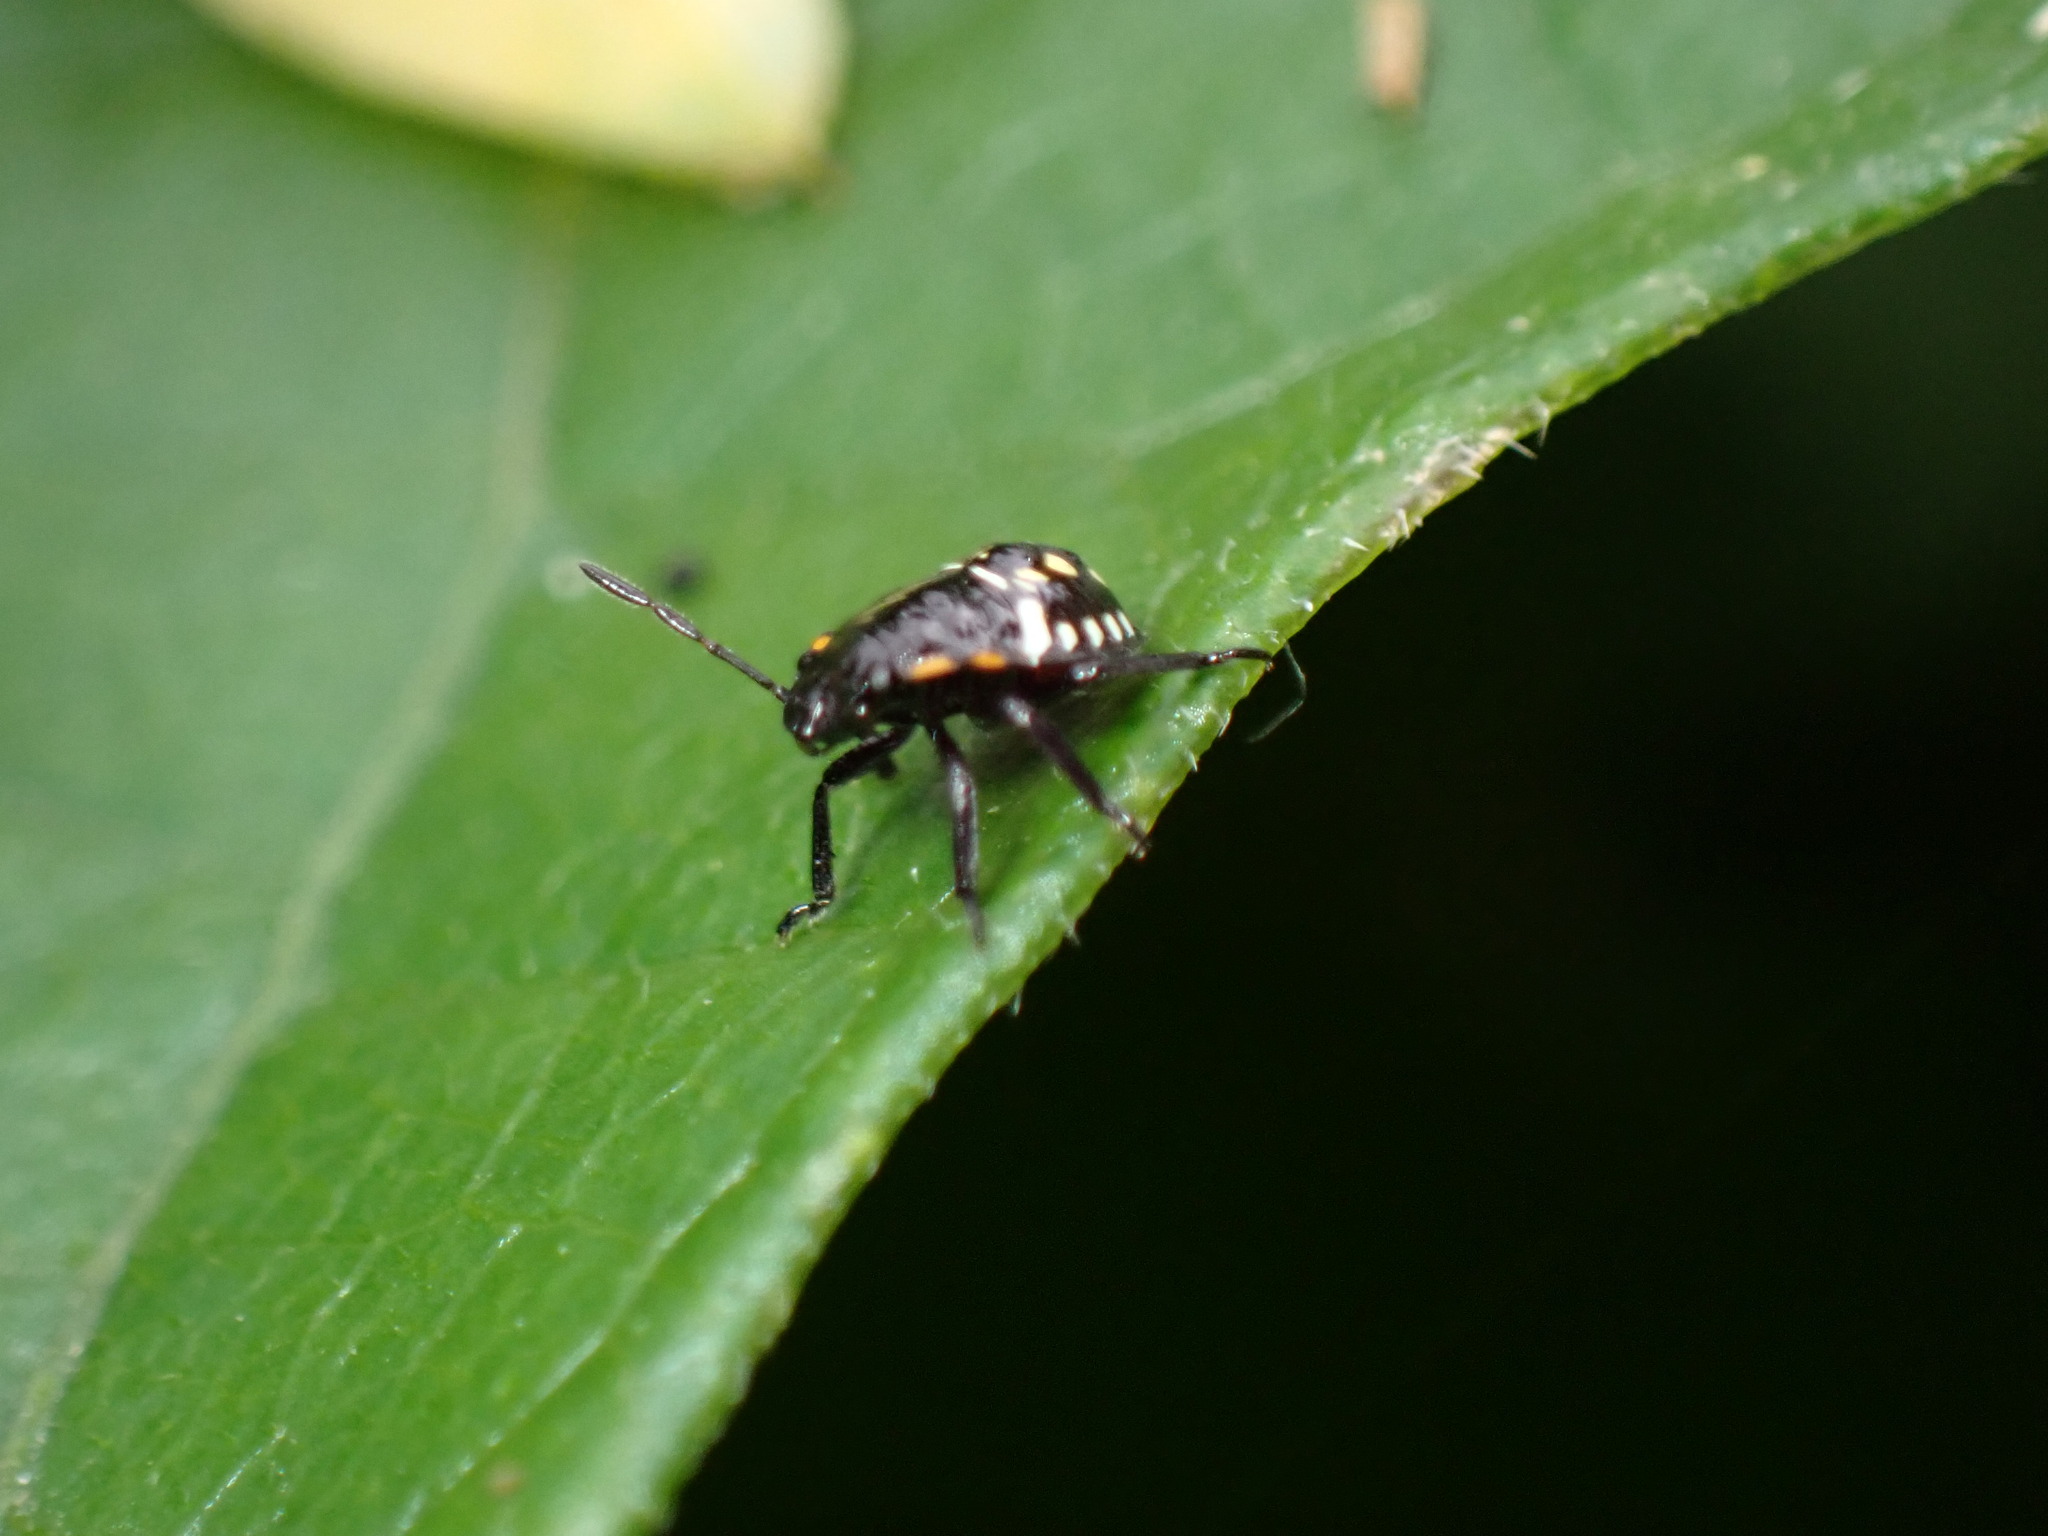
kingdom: Animalia
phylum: Arthropoda
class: Insecta
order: Hemiptera
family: Pentatomidae
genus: Nezara
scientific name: Nezara viridula
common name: Southern green stink bug
